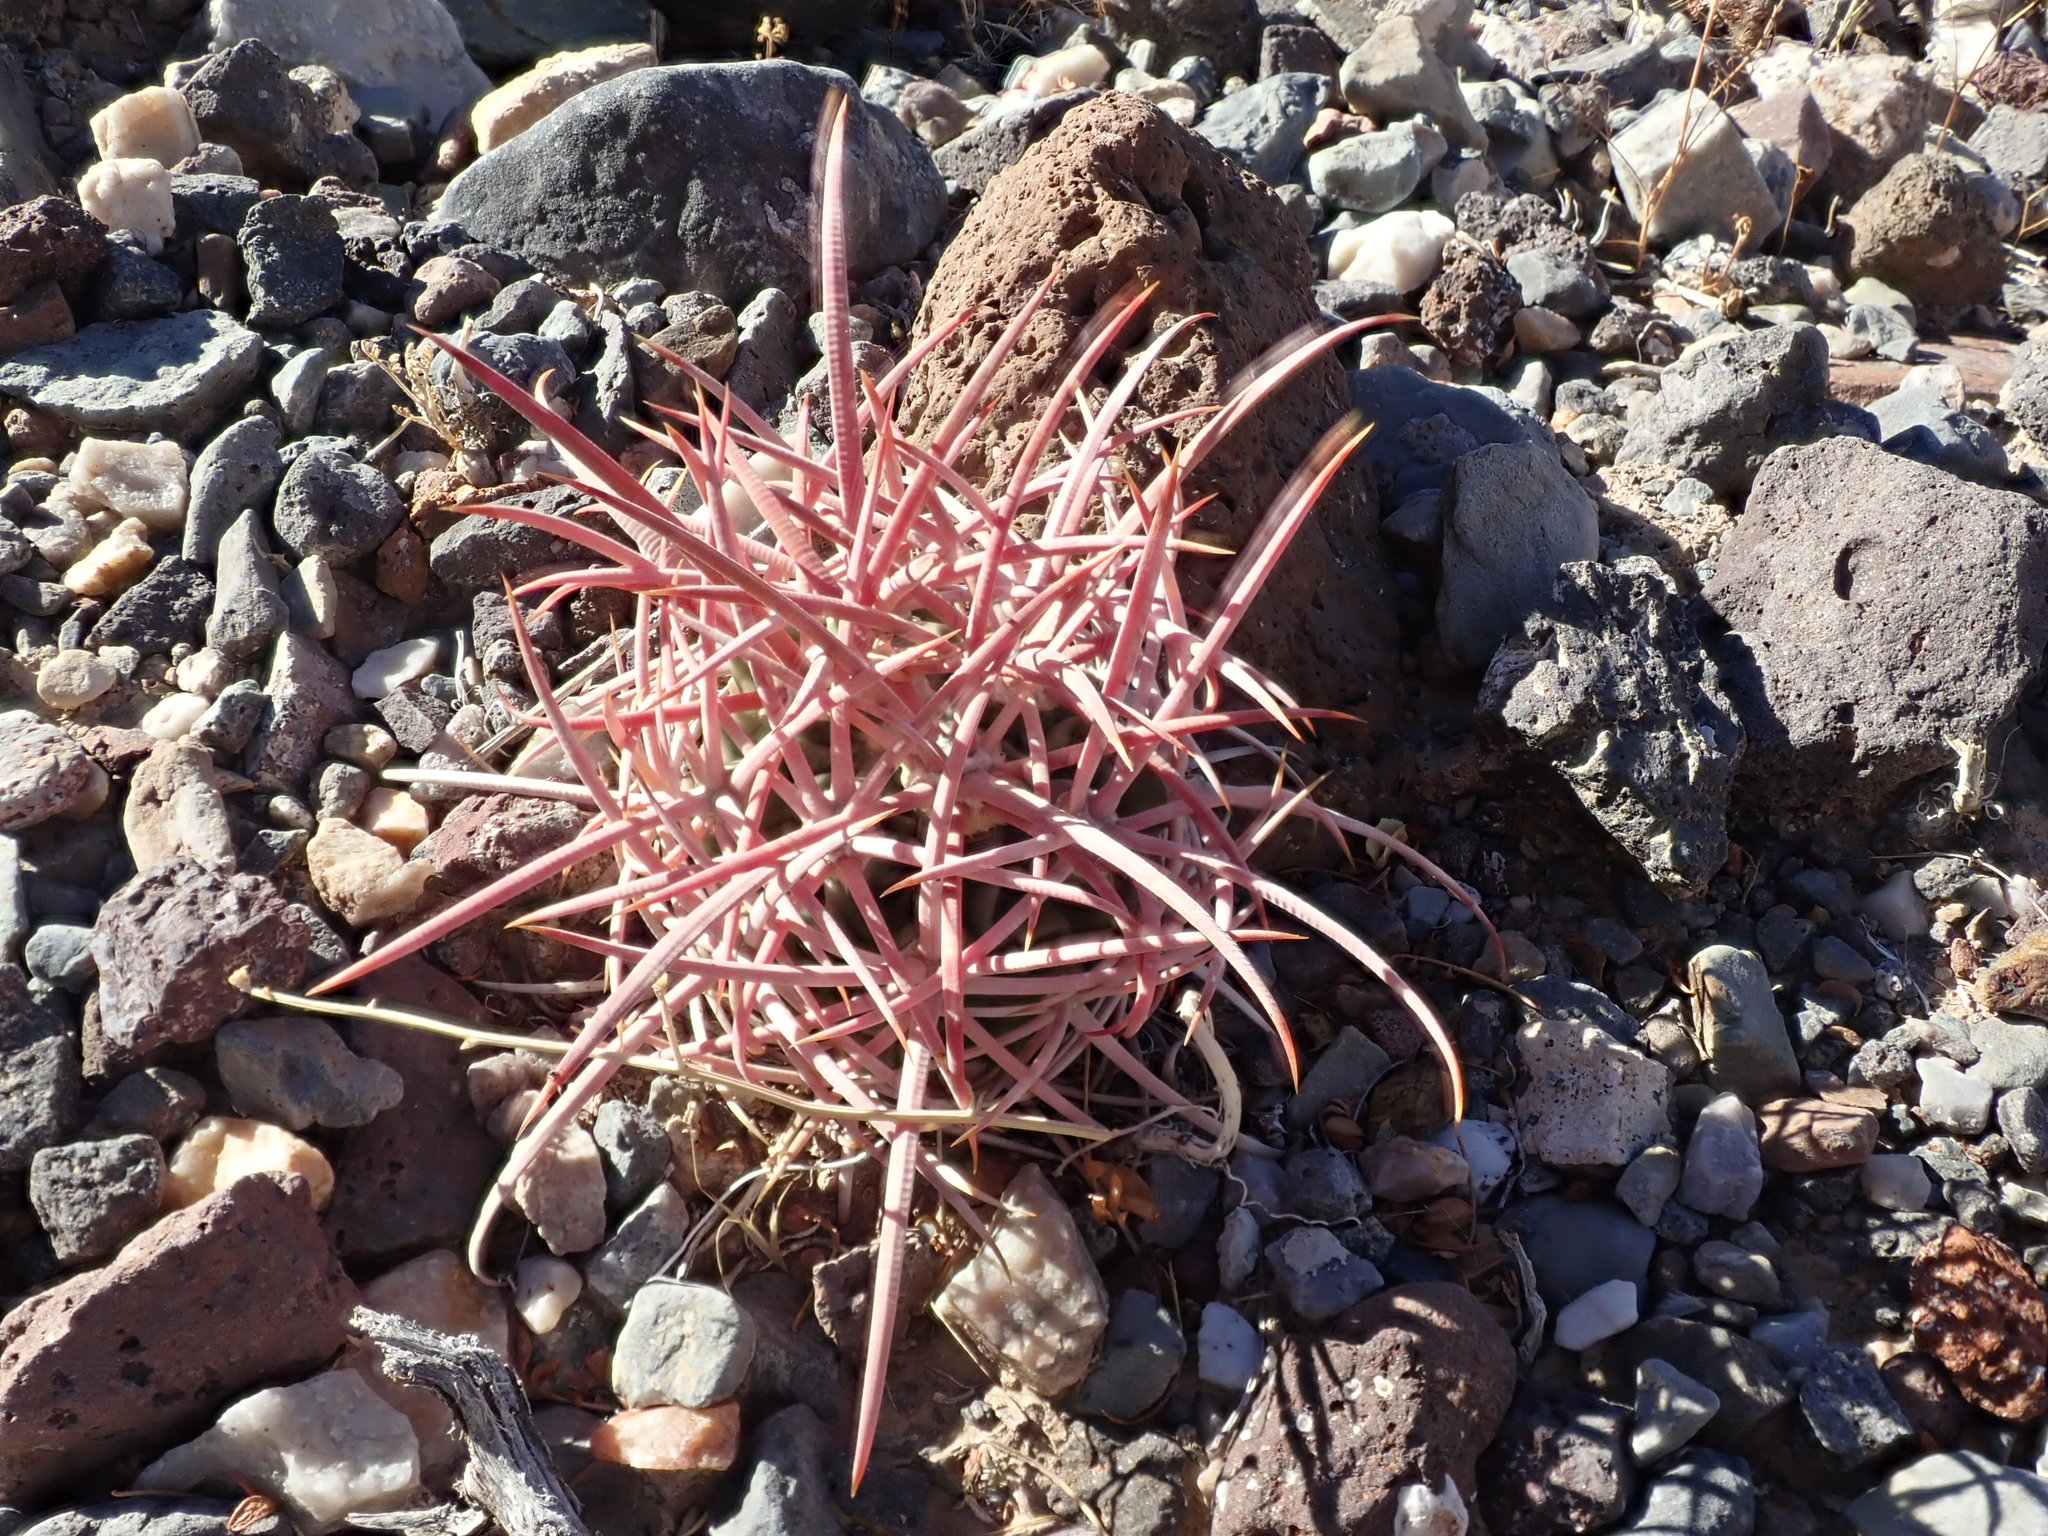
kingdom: Plantae
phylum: Tracheophyta
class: Magnoliopsida
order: Caryophyllales
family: Cactaceae
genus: Echinocactus
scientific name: Echinocactus polycephalus
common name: Cottontop cactus
